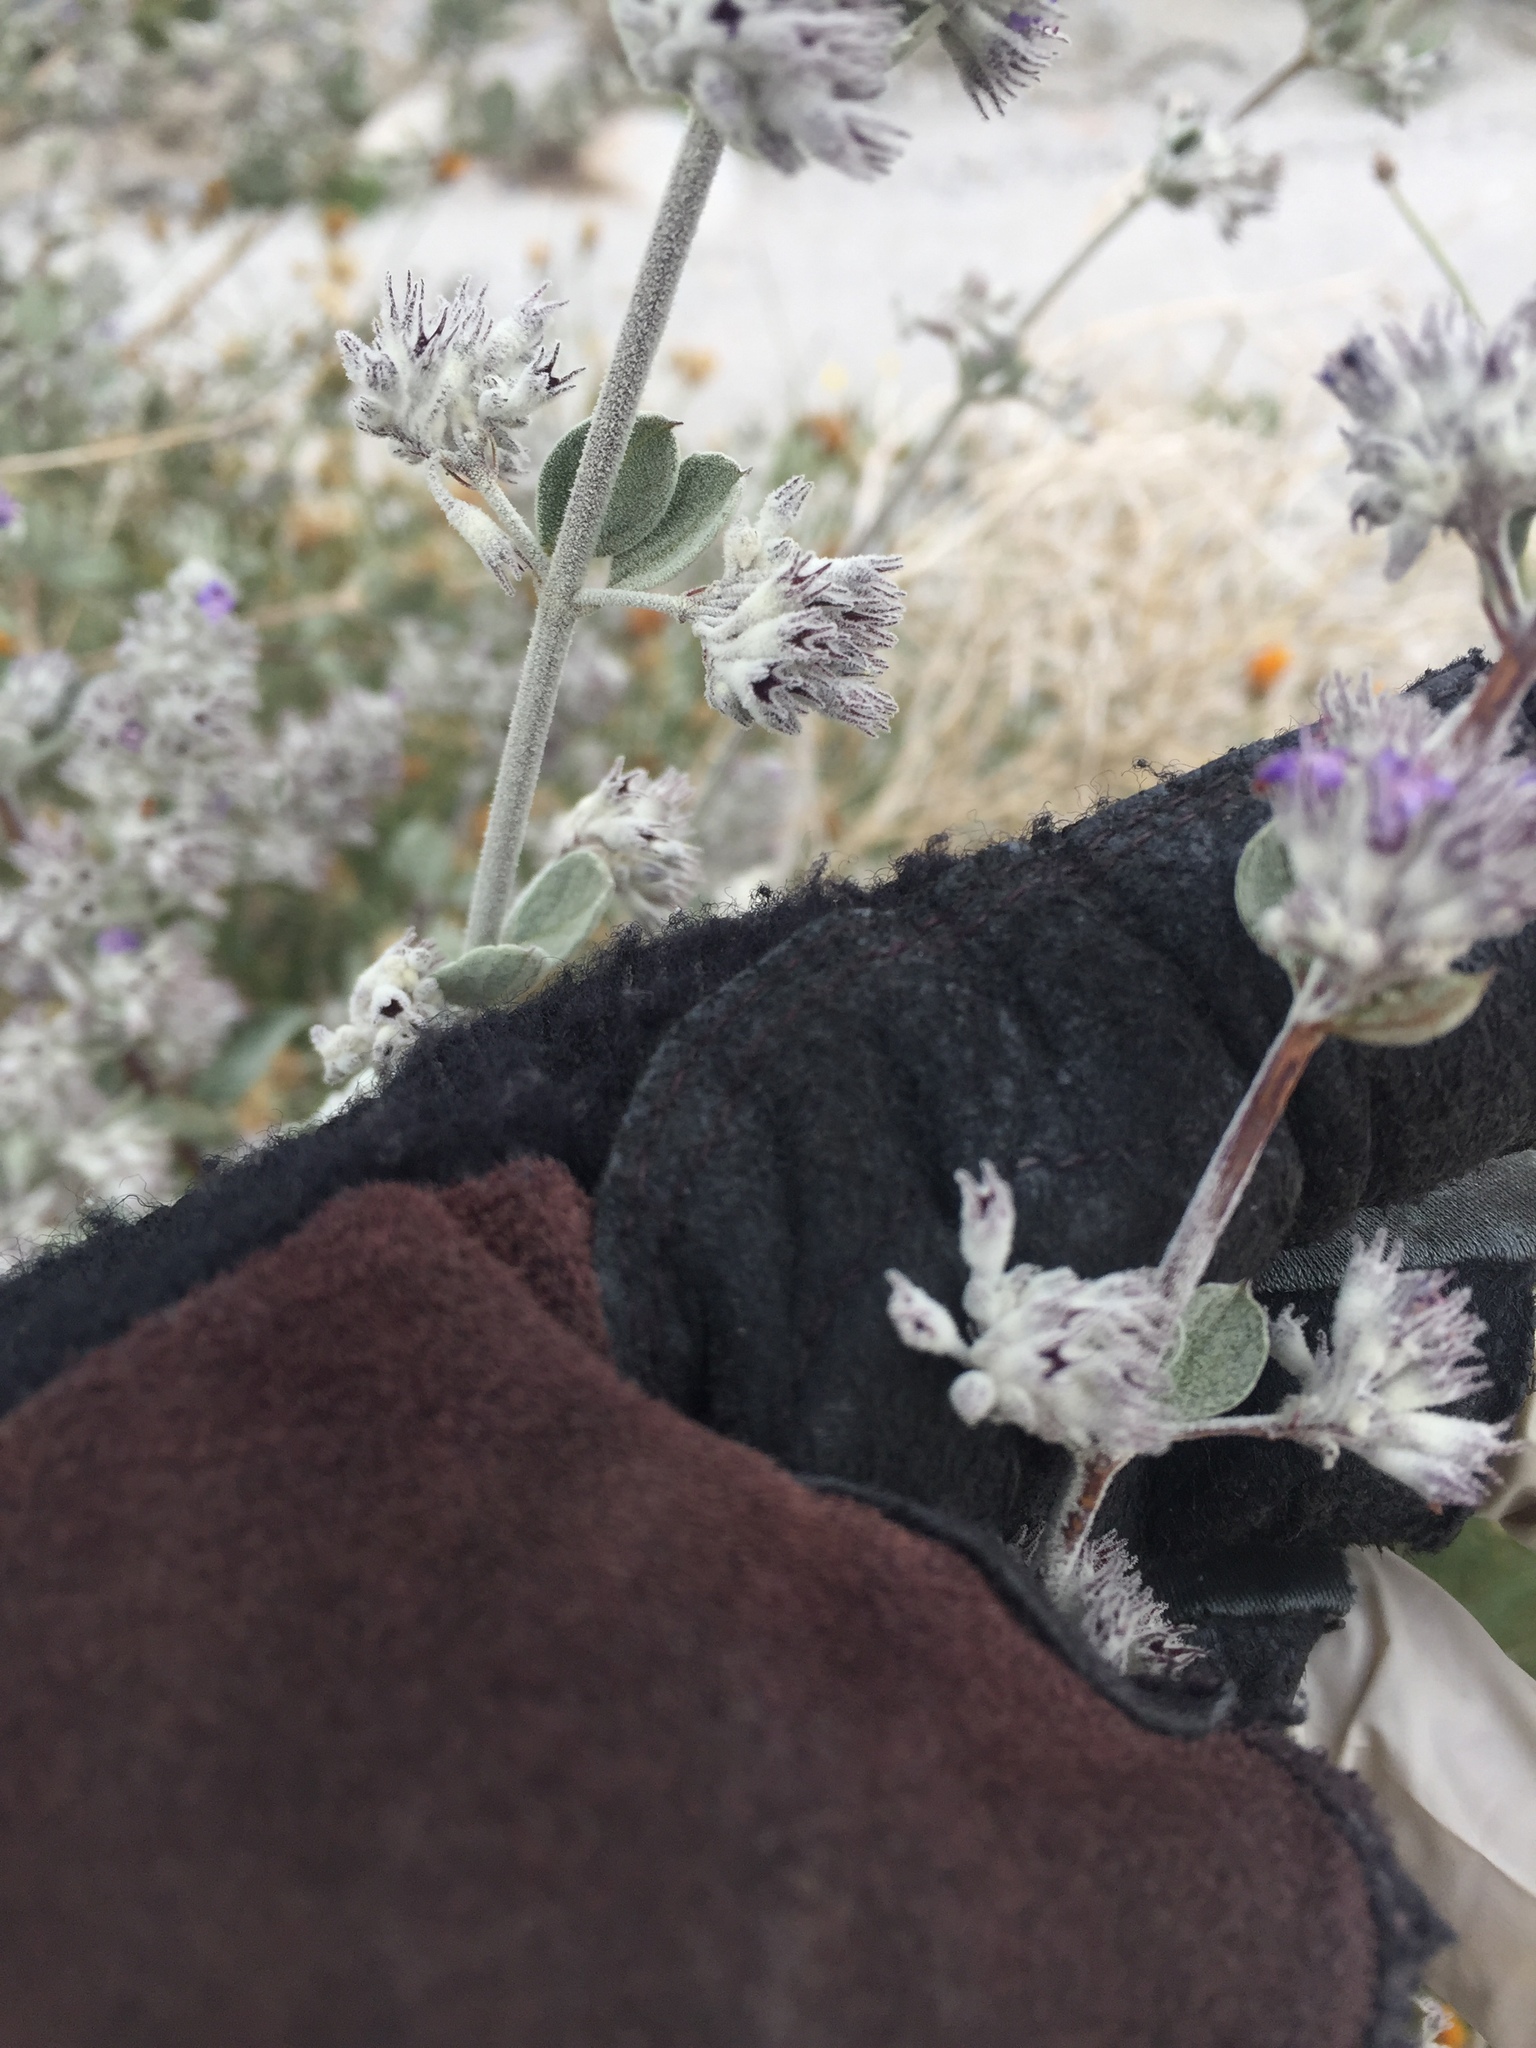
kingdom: Plantae
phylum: Tracheophyta
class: Magnoliopsida
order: Lamiales
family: Lamiaceae
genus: Condea
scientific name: Condea emoryi
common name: Chia
